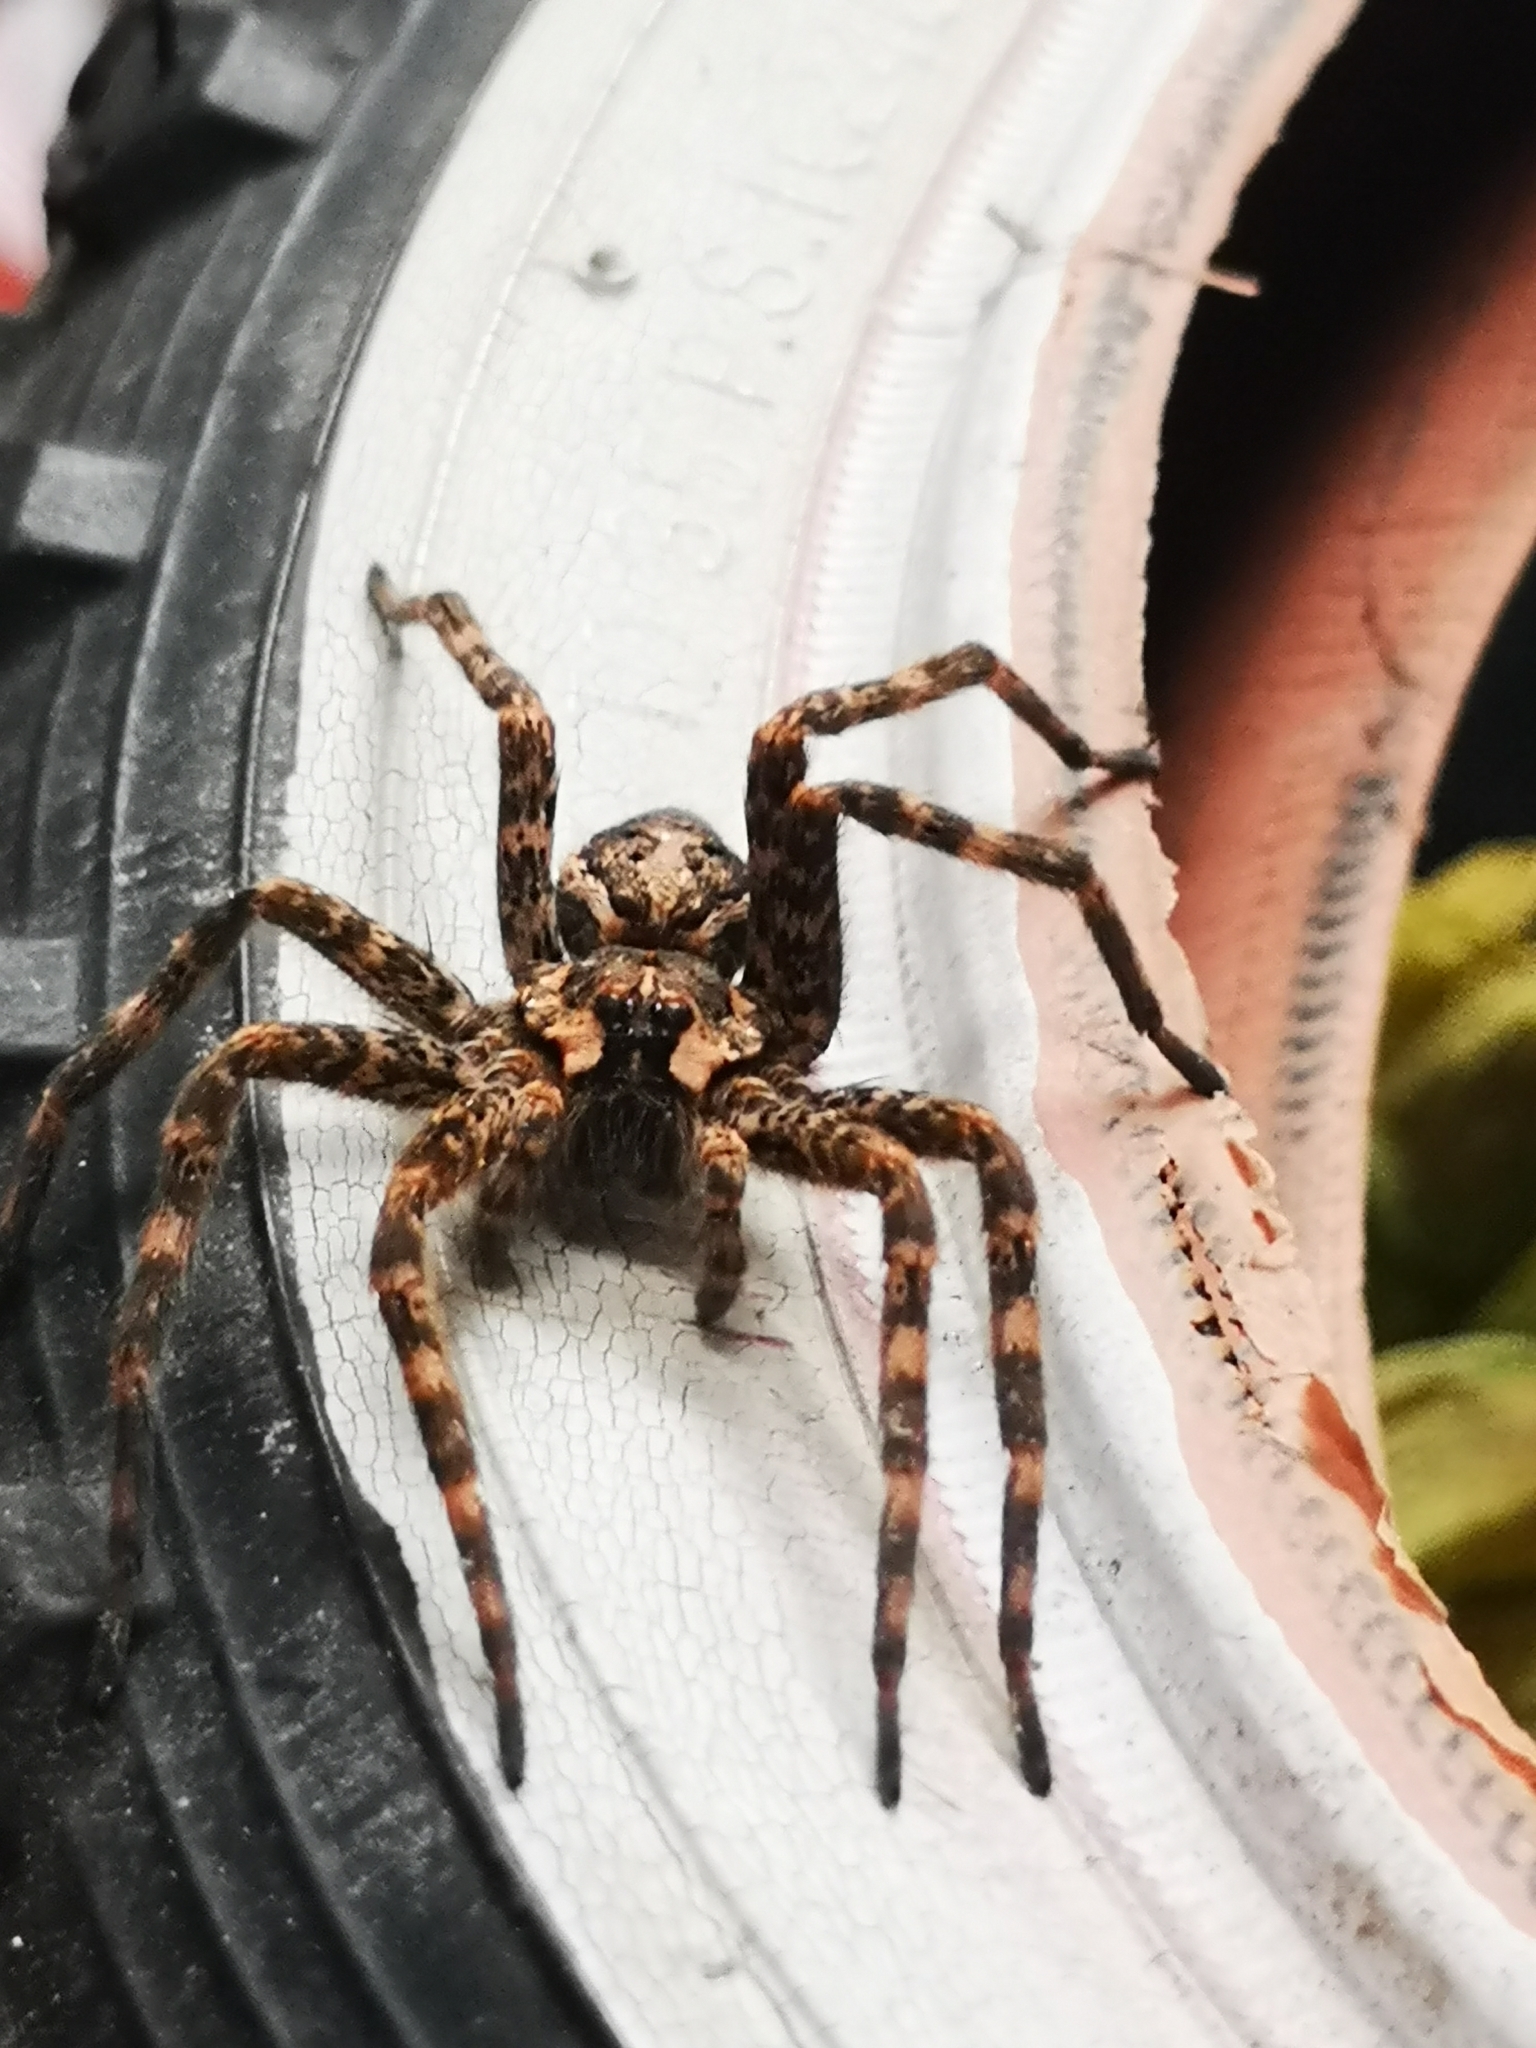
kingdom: Animalia
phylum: Arthropoda
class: Arachnida
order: Araneae
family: Pisauridae
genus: Dolomedes
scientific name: Dolomedes tenebrosus
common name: Dark fishing spider
